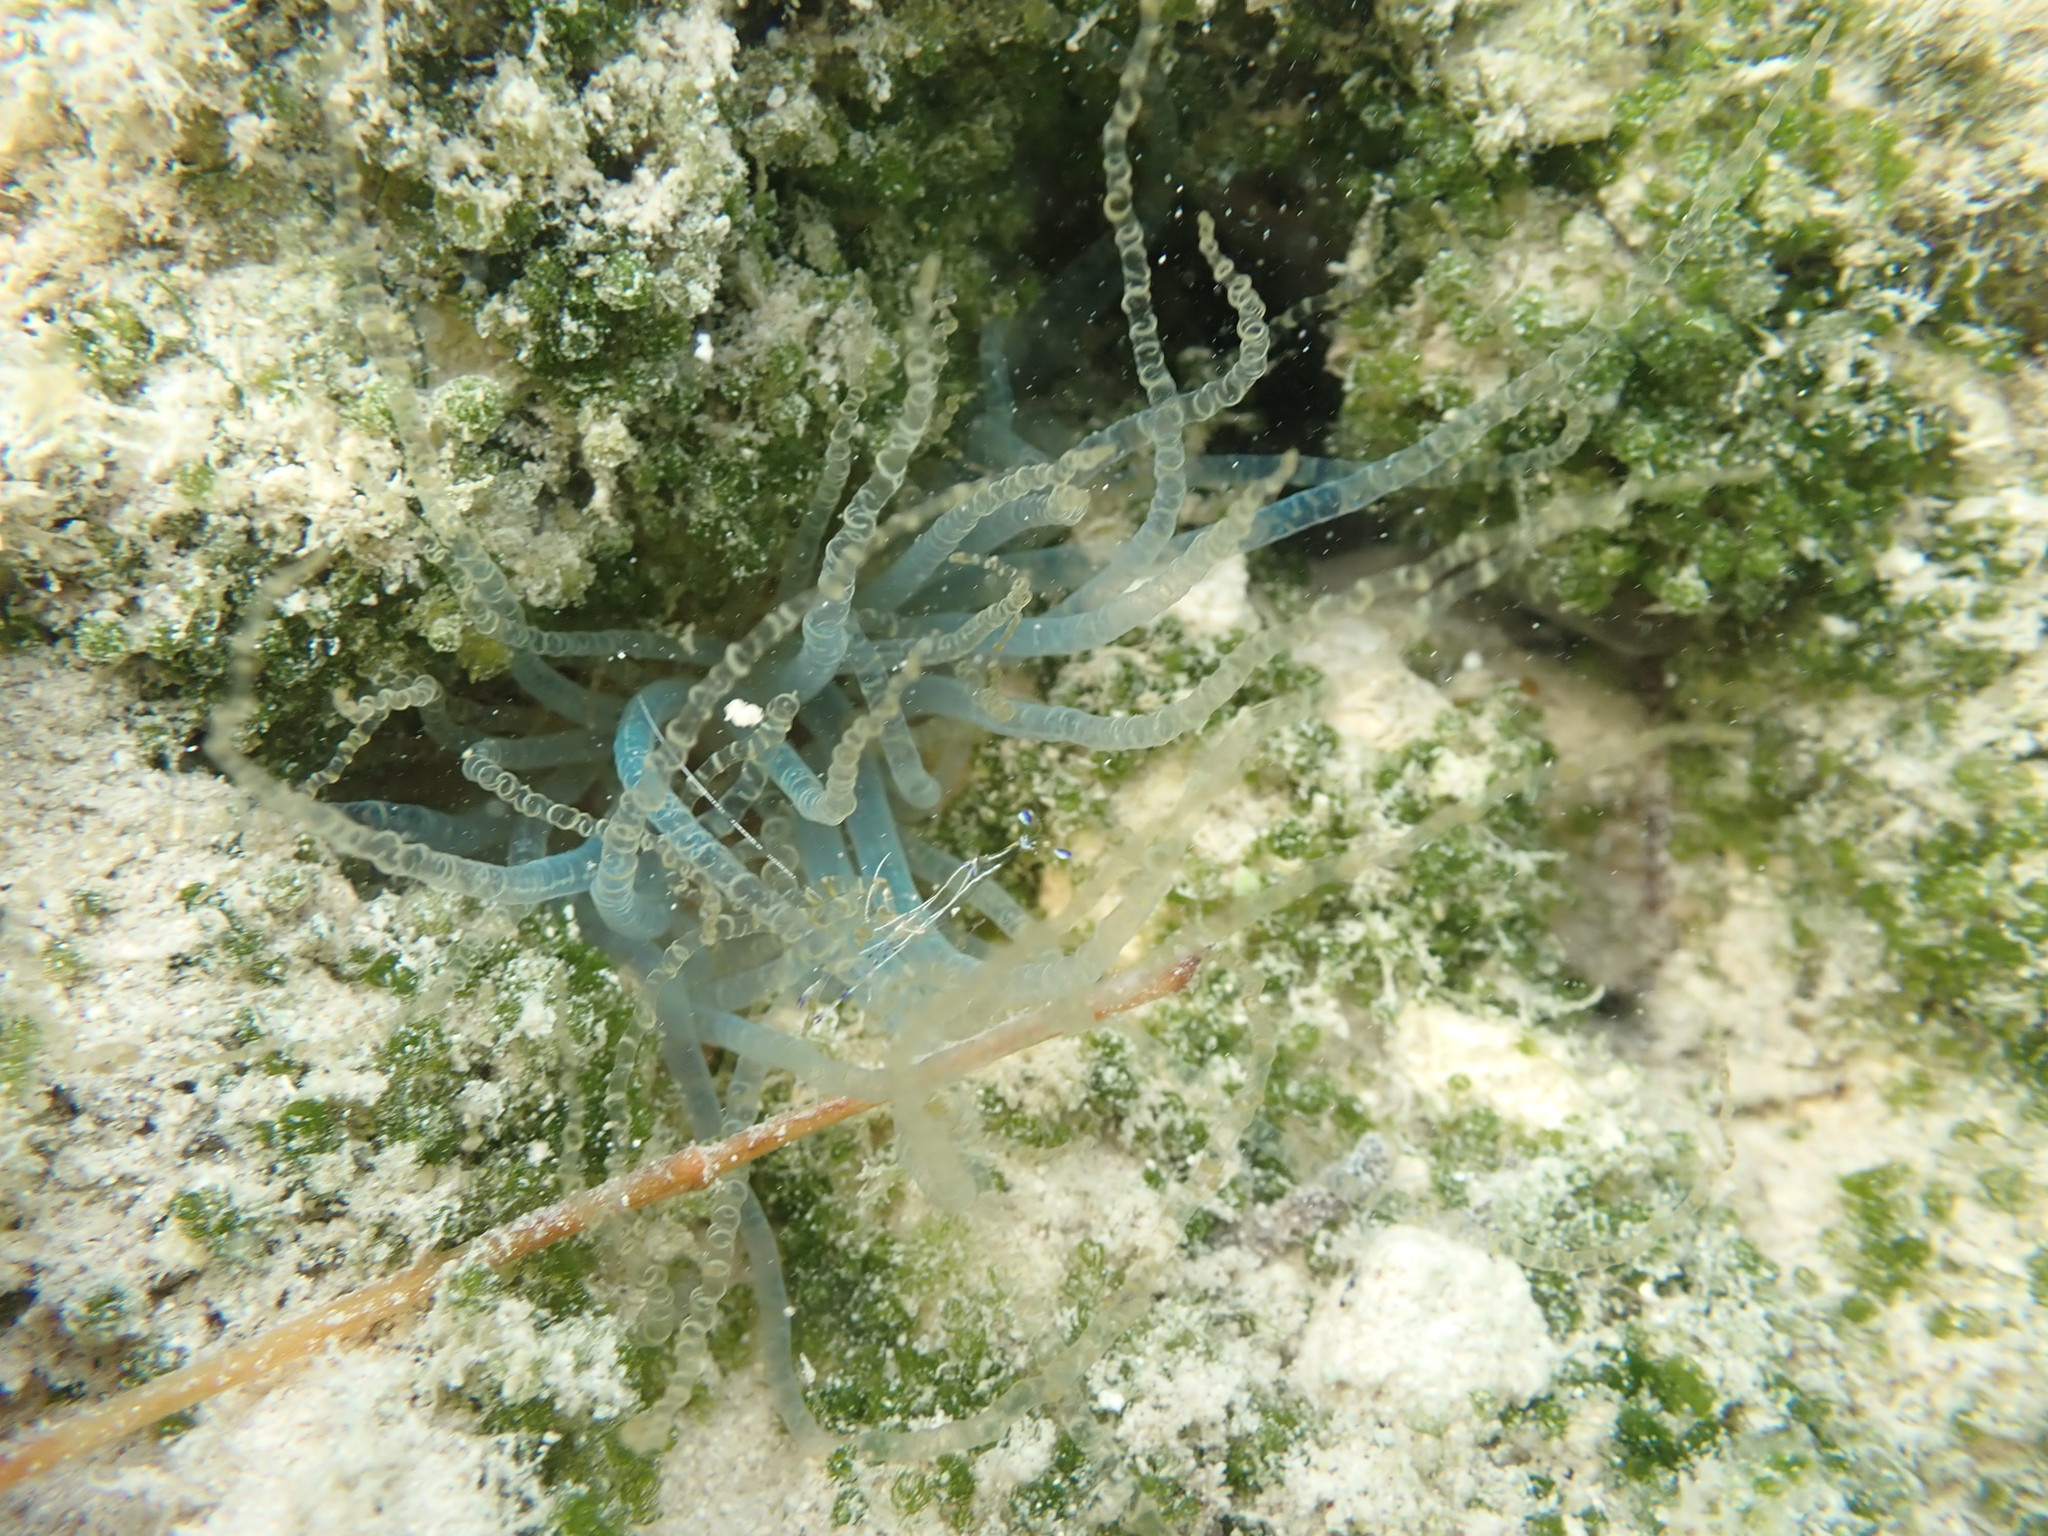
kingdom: Animalia
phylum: Cnidaria
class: Anthozoa
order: Actiniaria
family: Aiptasiidae
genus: Bartholomea
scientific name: Bartholomea annulata
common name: Corkscrew anemone
